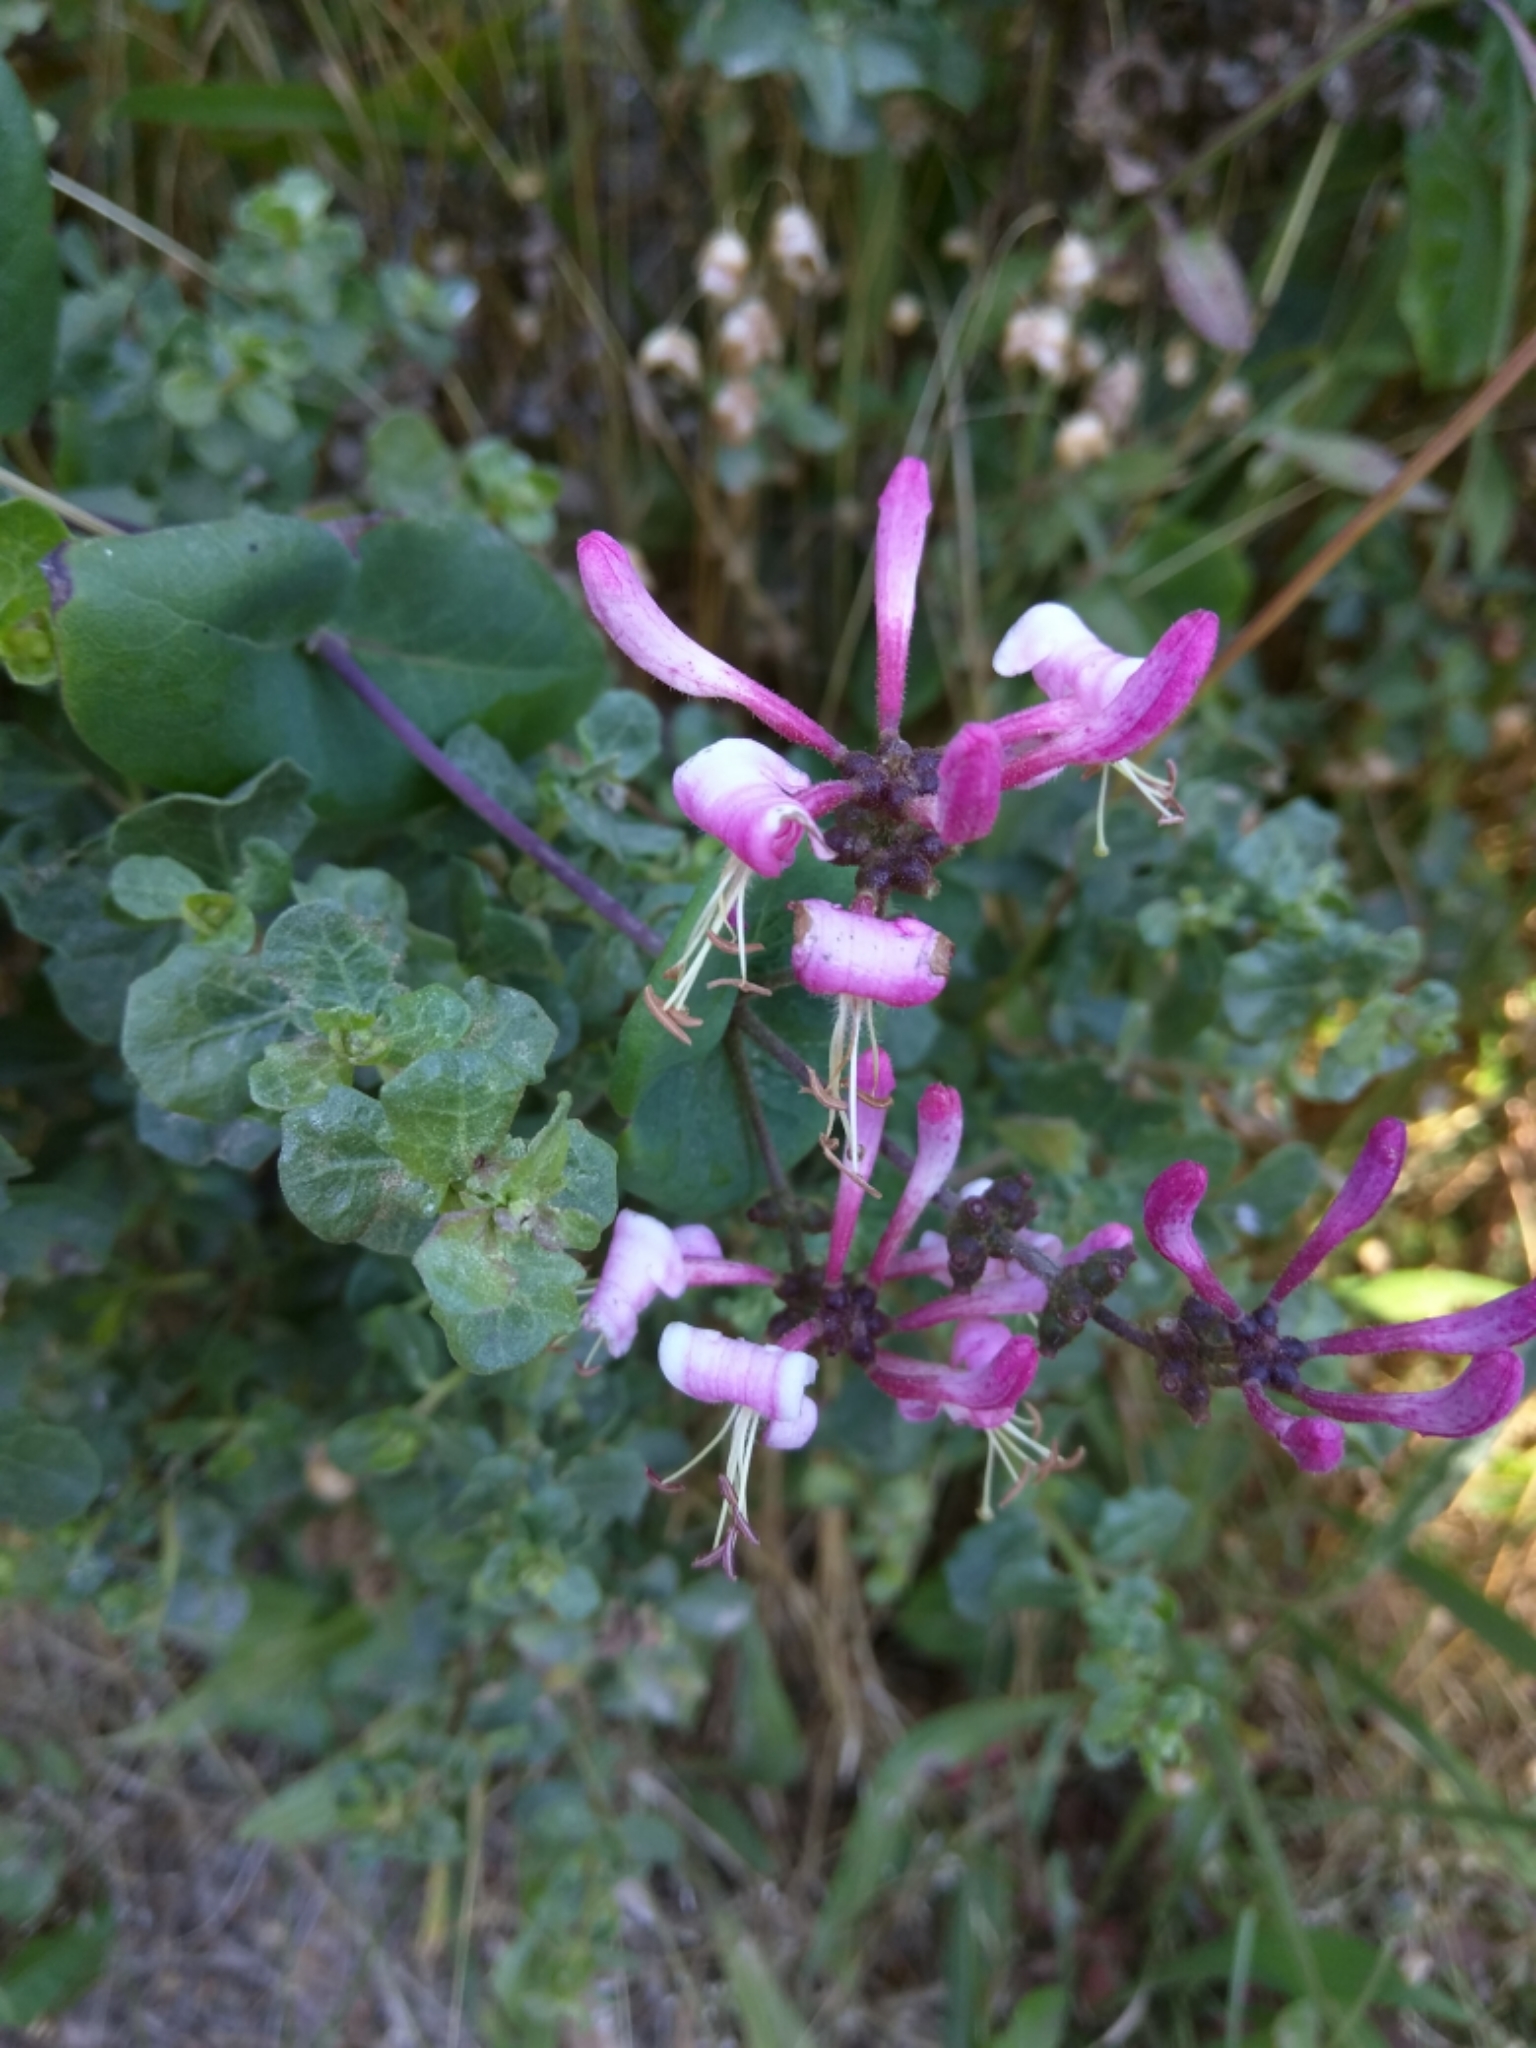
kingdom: Plantae
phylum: Tracheophyta
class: Magnoliopsida
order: Dipsacales
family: Caprifoliaceae
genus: Lonicera
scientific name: Lonicera hispidula
